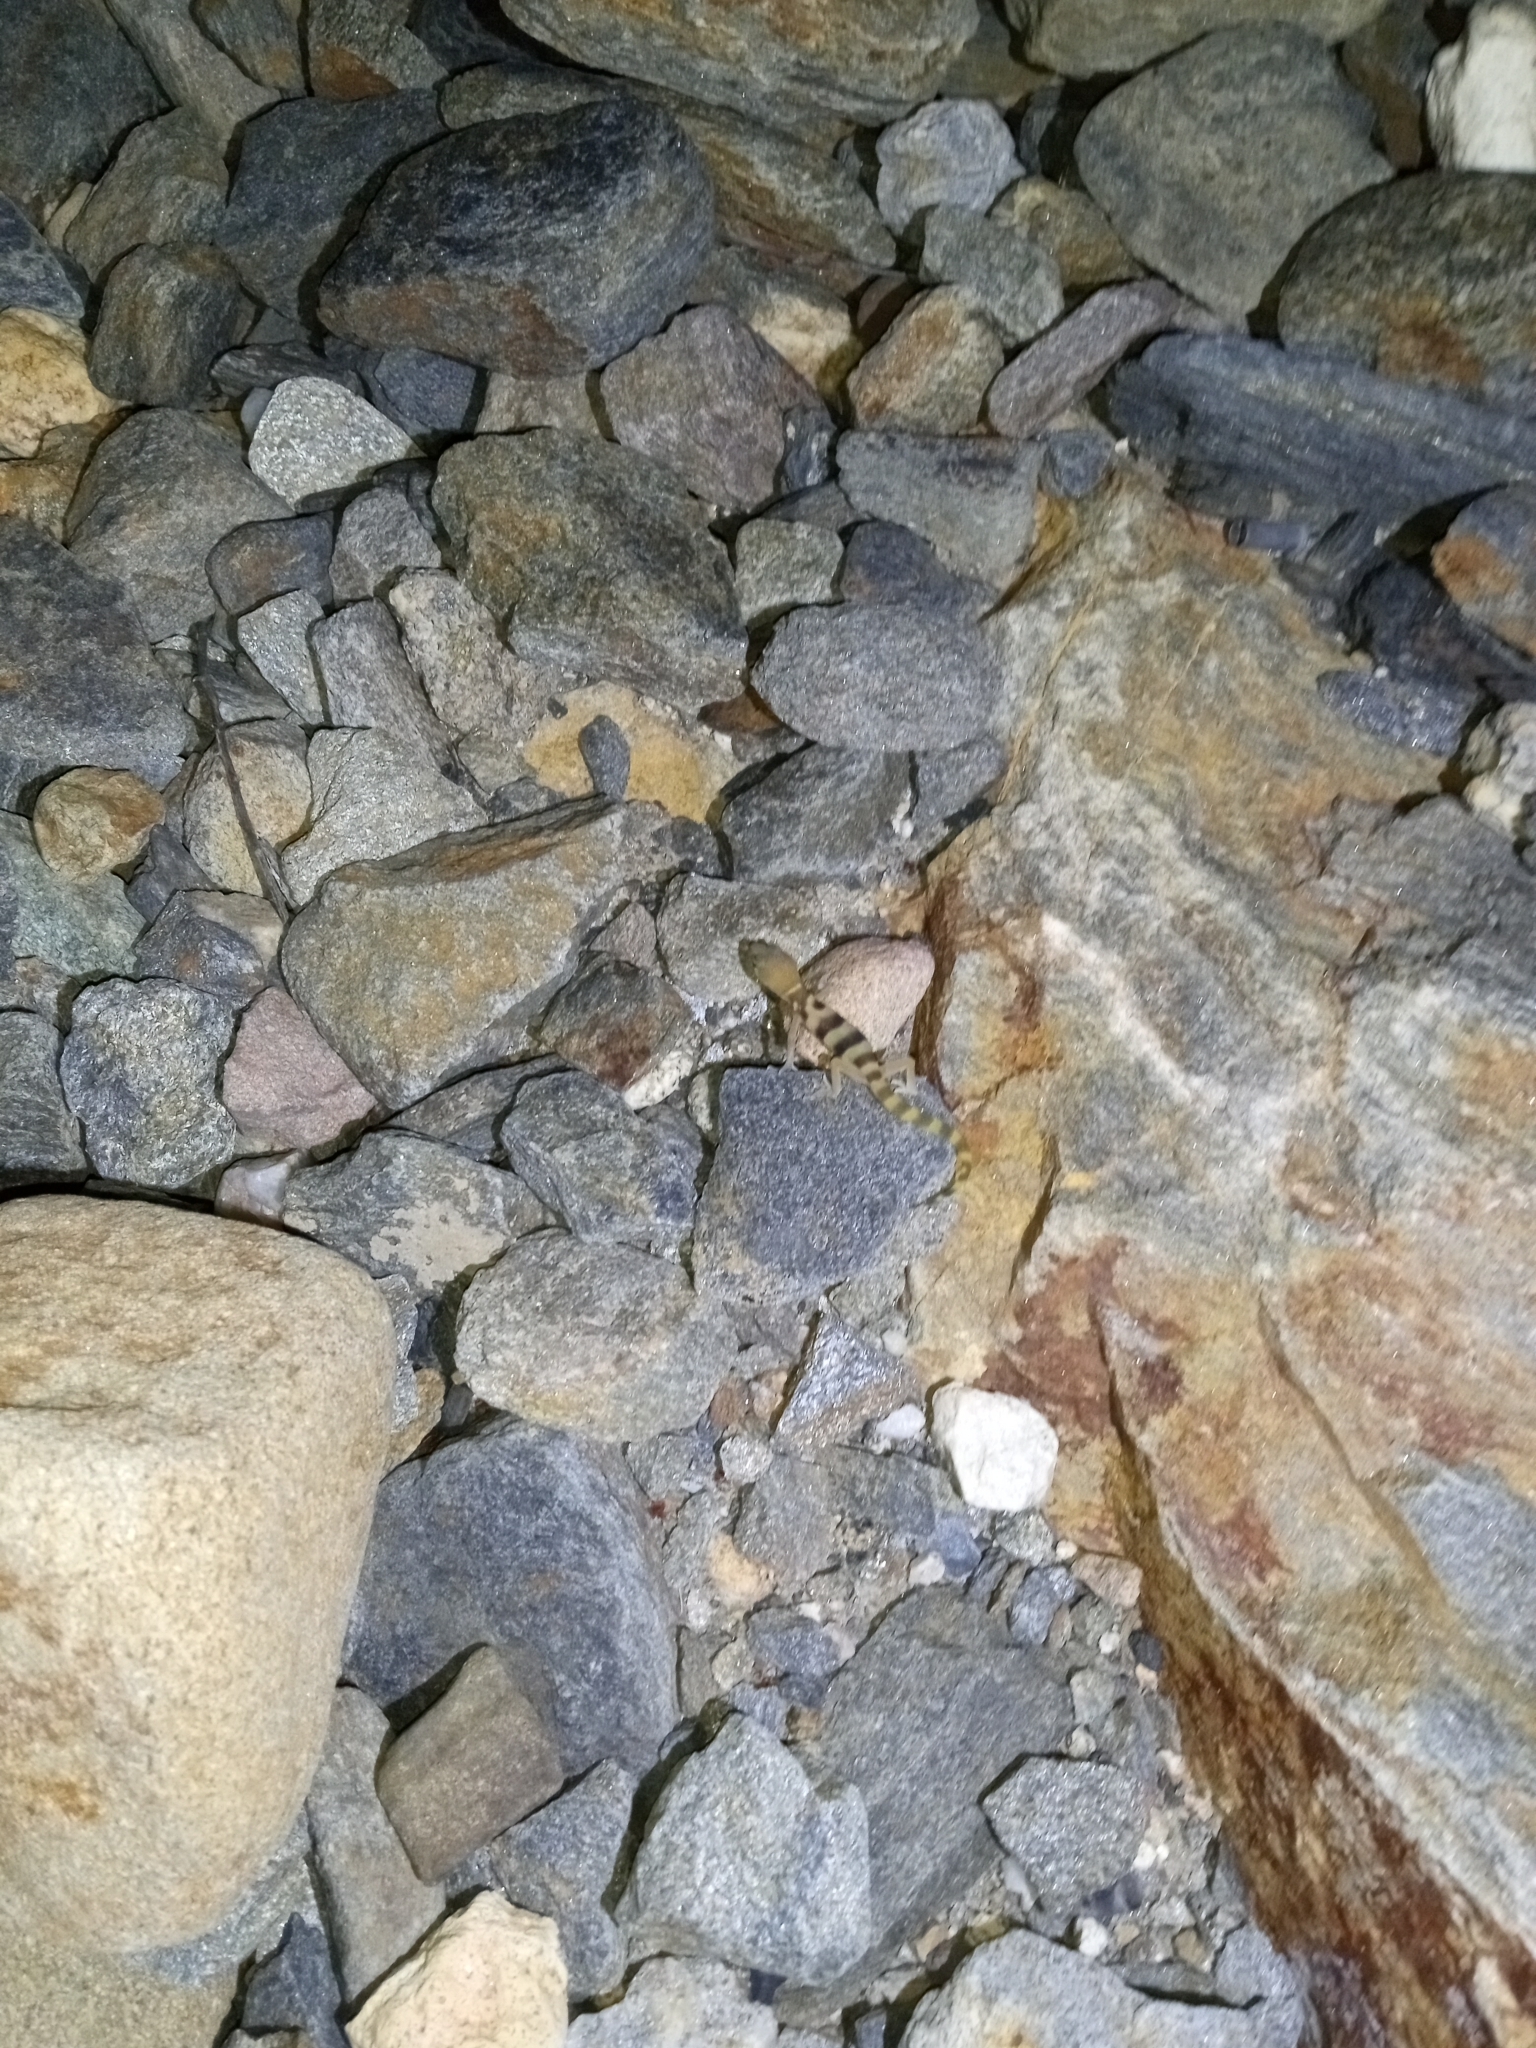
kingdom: Animalia
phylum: Chordata
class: Squamata
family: Eublepharidae
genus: Coleonyx
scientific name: Coleonyx variegatus
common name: Western banded gecko
